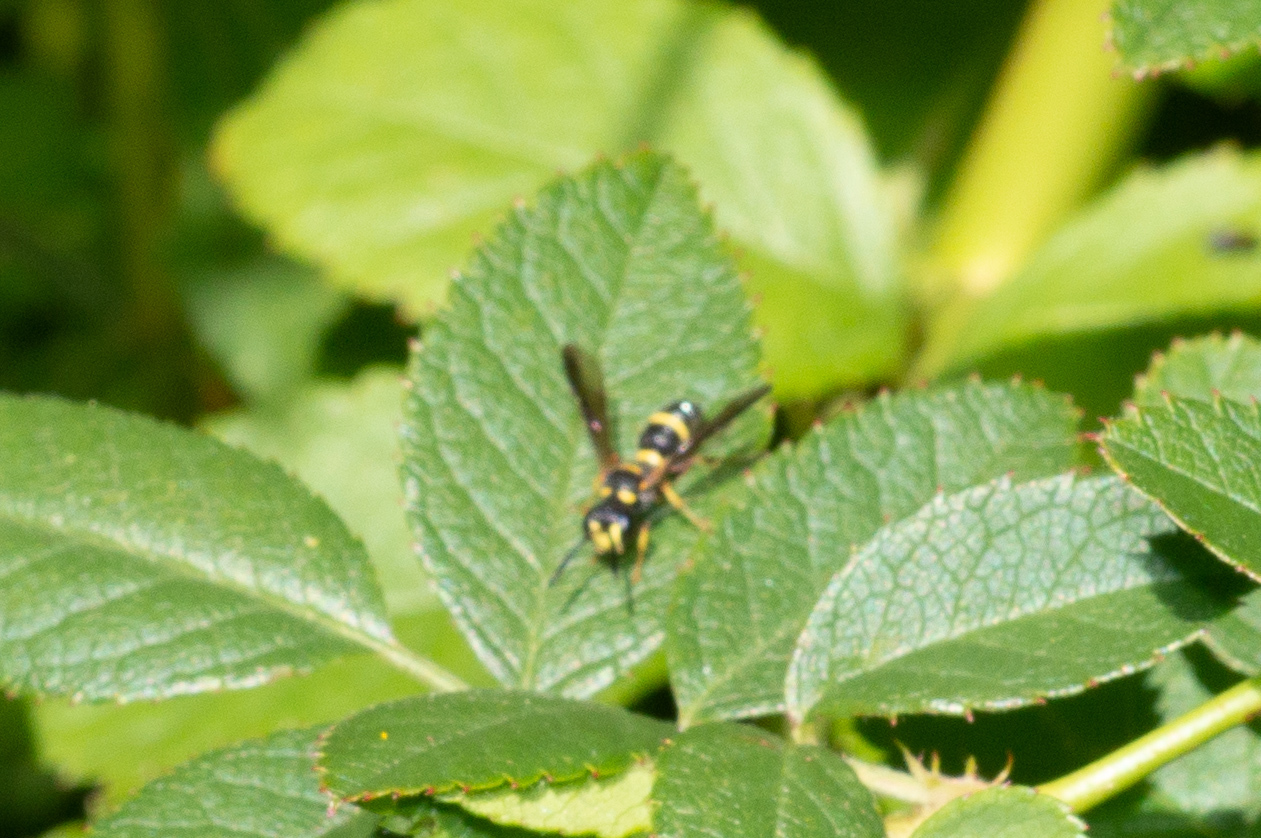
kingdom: Animalia
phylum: Arthropoda
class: Insecta
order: Hymenoptera
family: Crabronidae
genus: Cerceris
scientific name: Cerceris insolita
